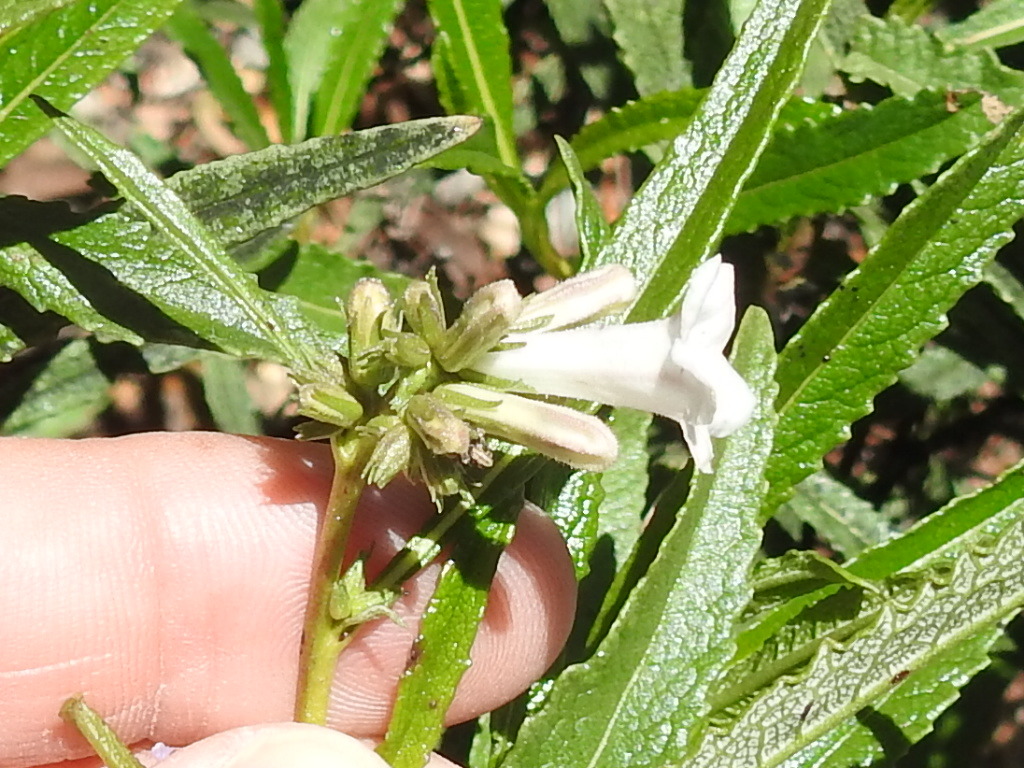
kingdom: Plantae
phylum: Tracheophyta
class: Magnoliopsida
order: Boraginales
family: Namaceae
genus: Eriodictyon
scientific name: Eriodictyon californicum
